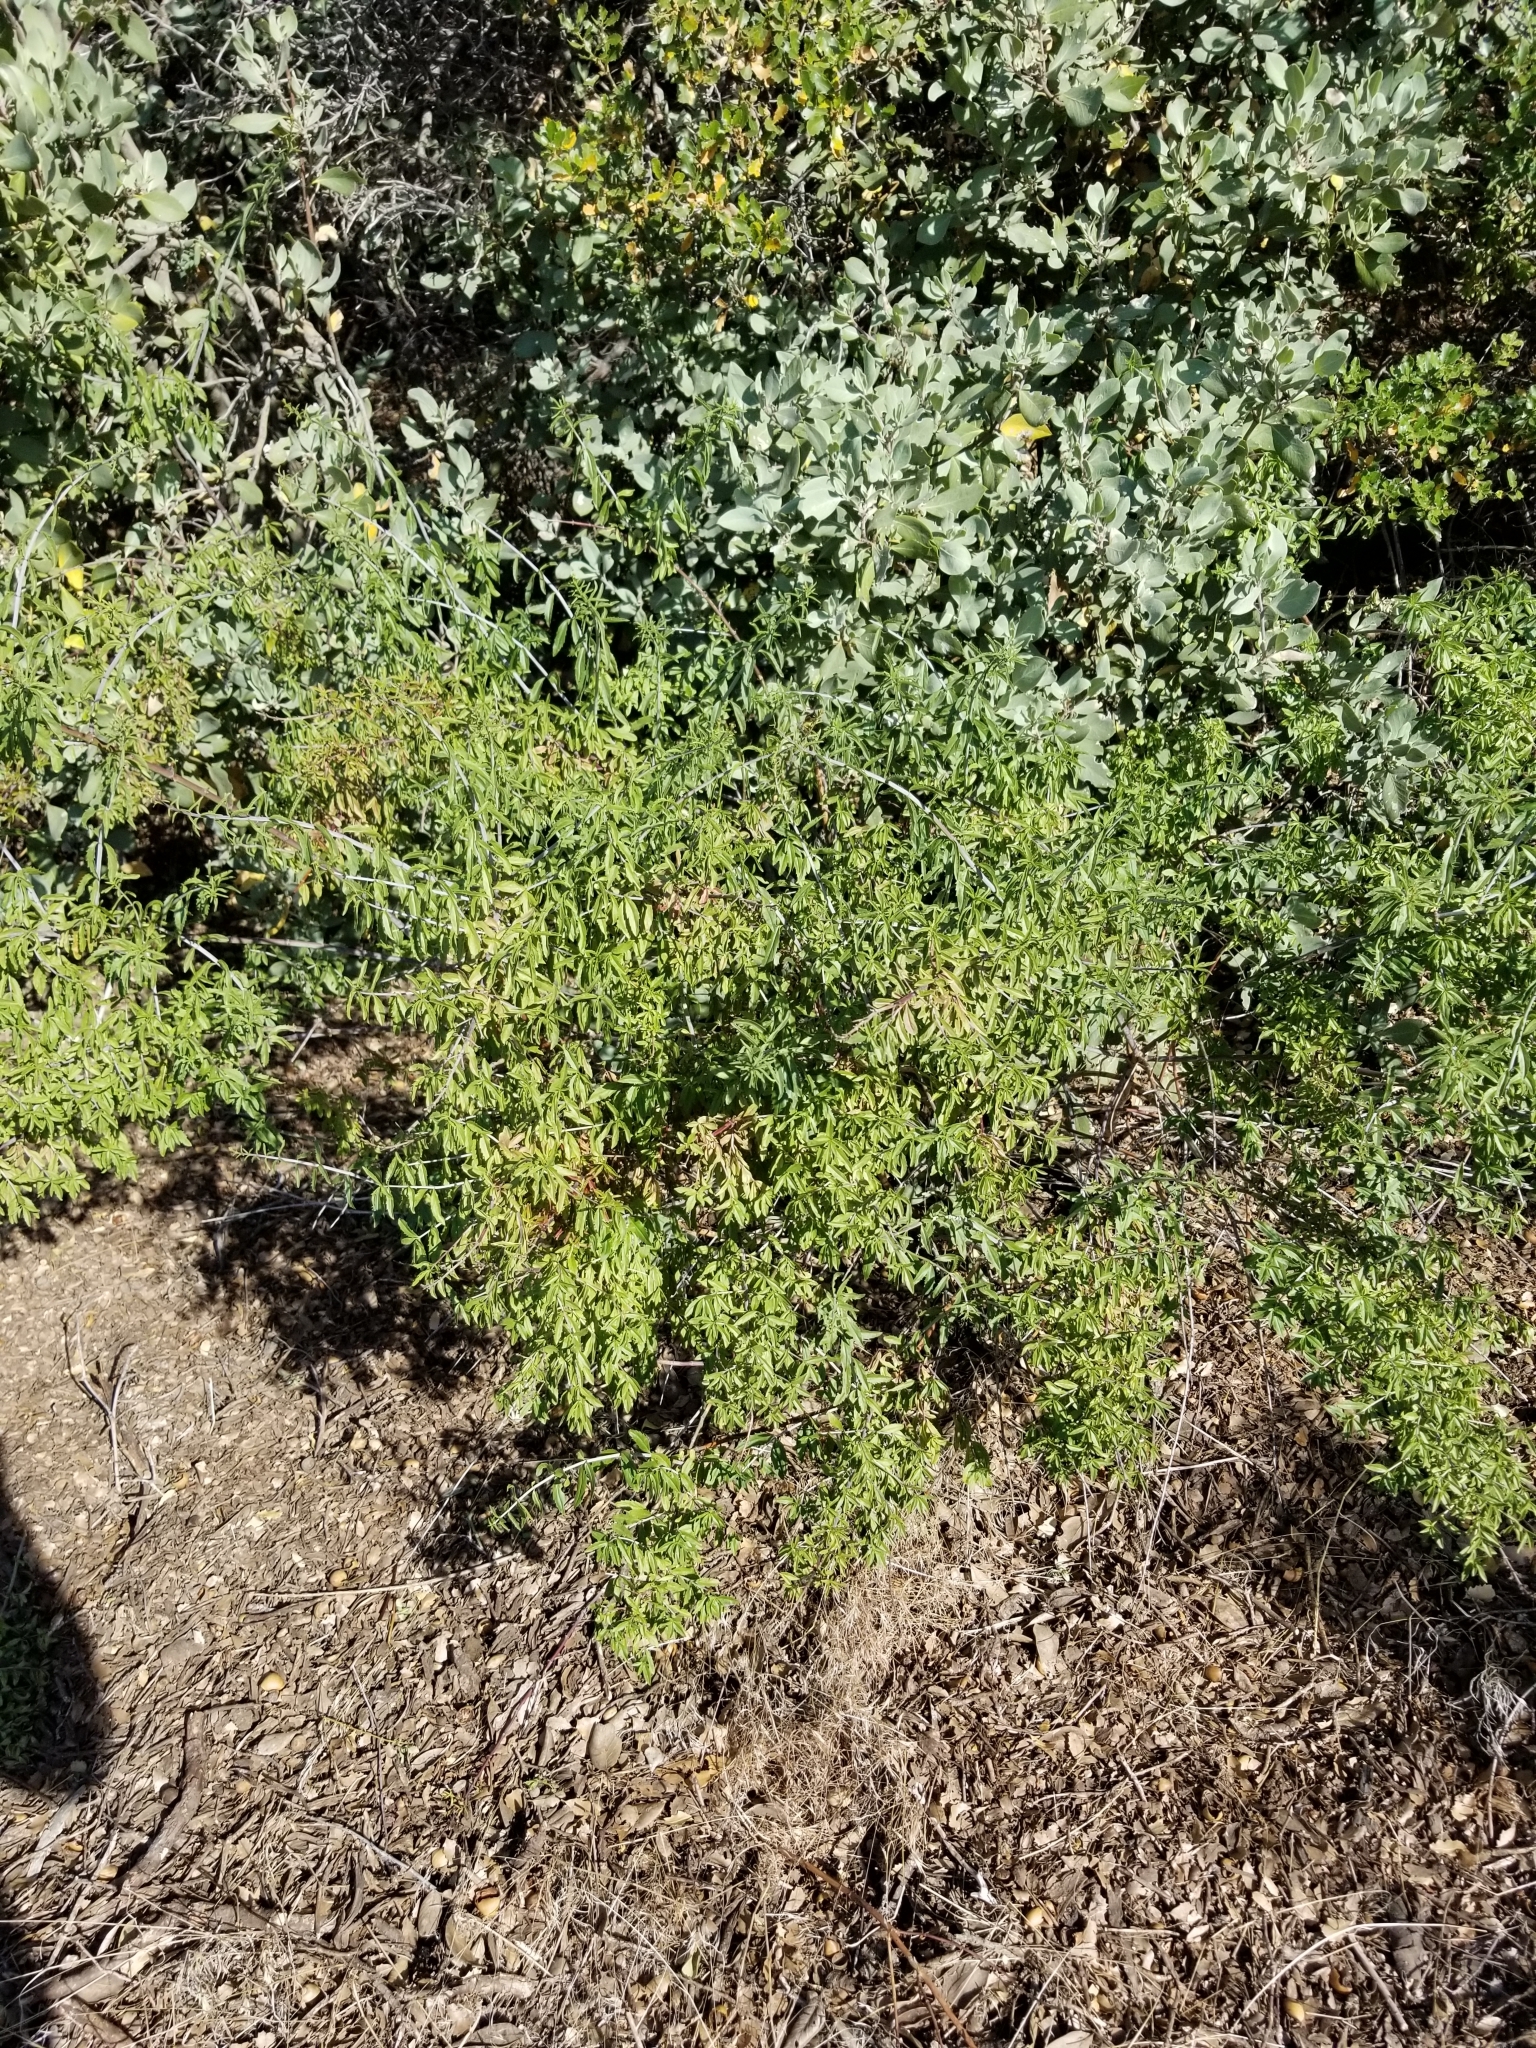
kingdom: Plantae
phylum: Tracheophyta
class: Magnoliopsida
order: Lamiales
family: Plantaginaceae
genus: Keckiella
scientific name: Keckiella ternata
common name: Scarlet keckiella
